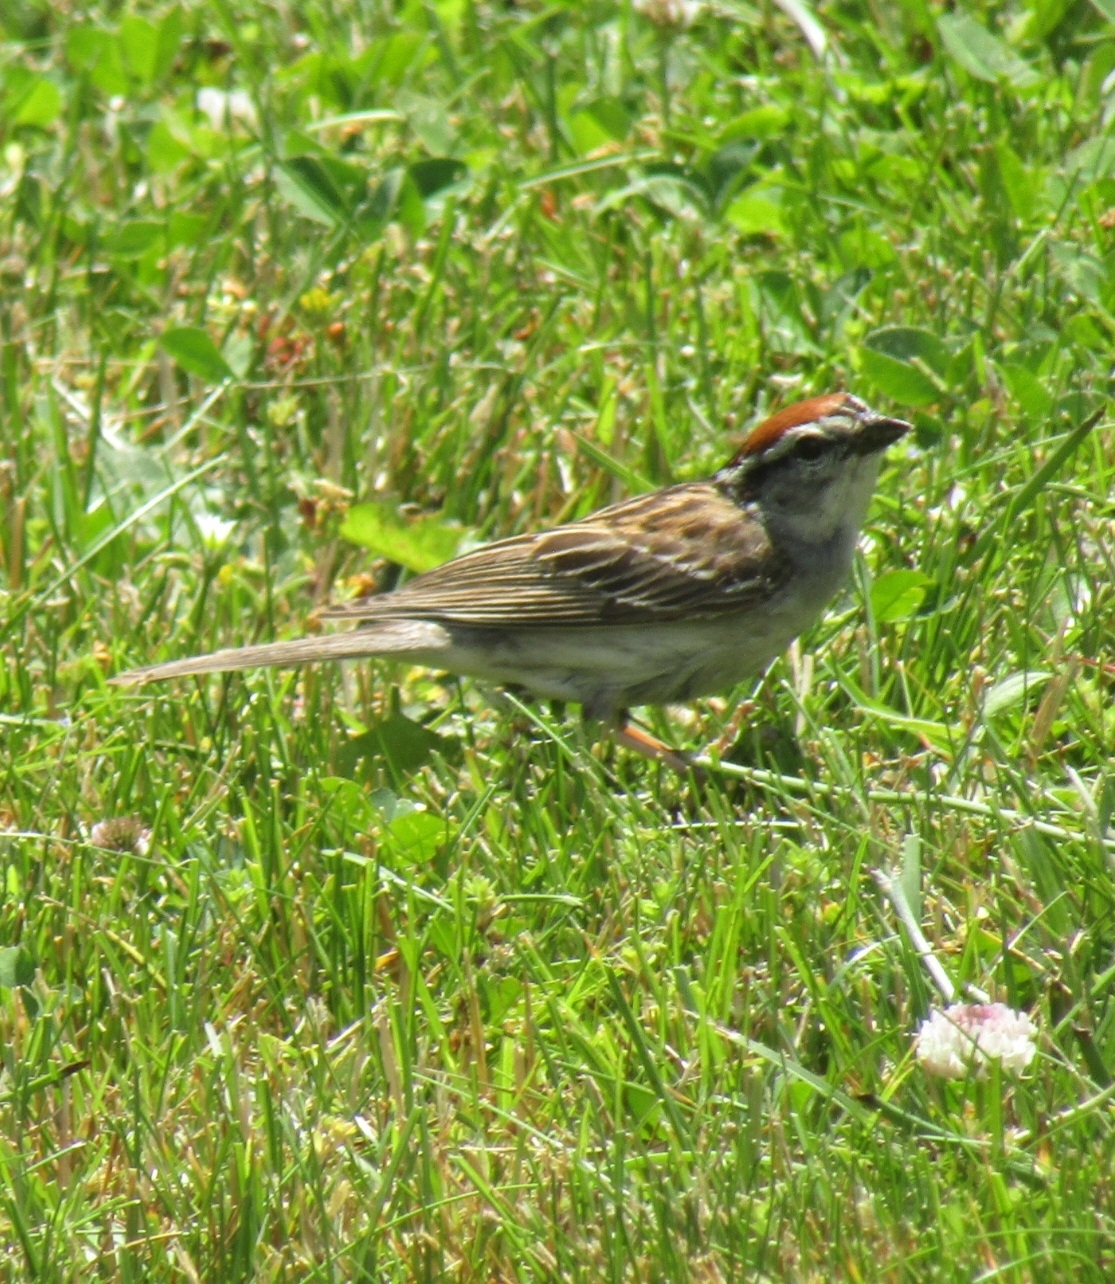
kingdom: Animalia
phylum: Chordata
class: Aves
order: Passeriformes
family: Passerellidae
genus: Spizella
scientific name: Spizella passerina
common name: Chipping sparrow
